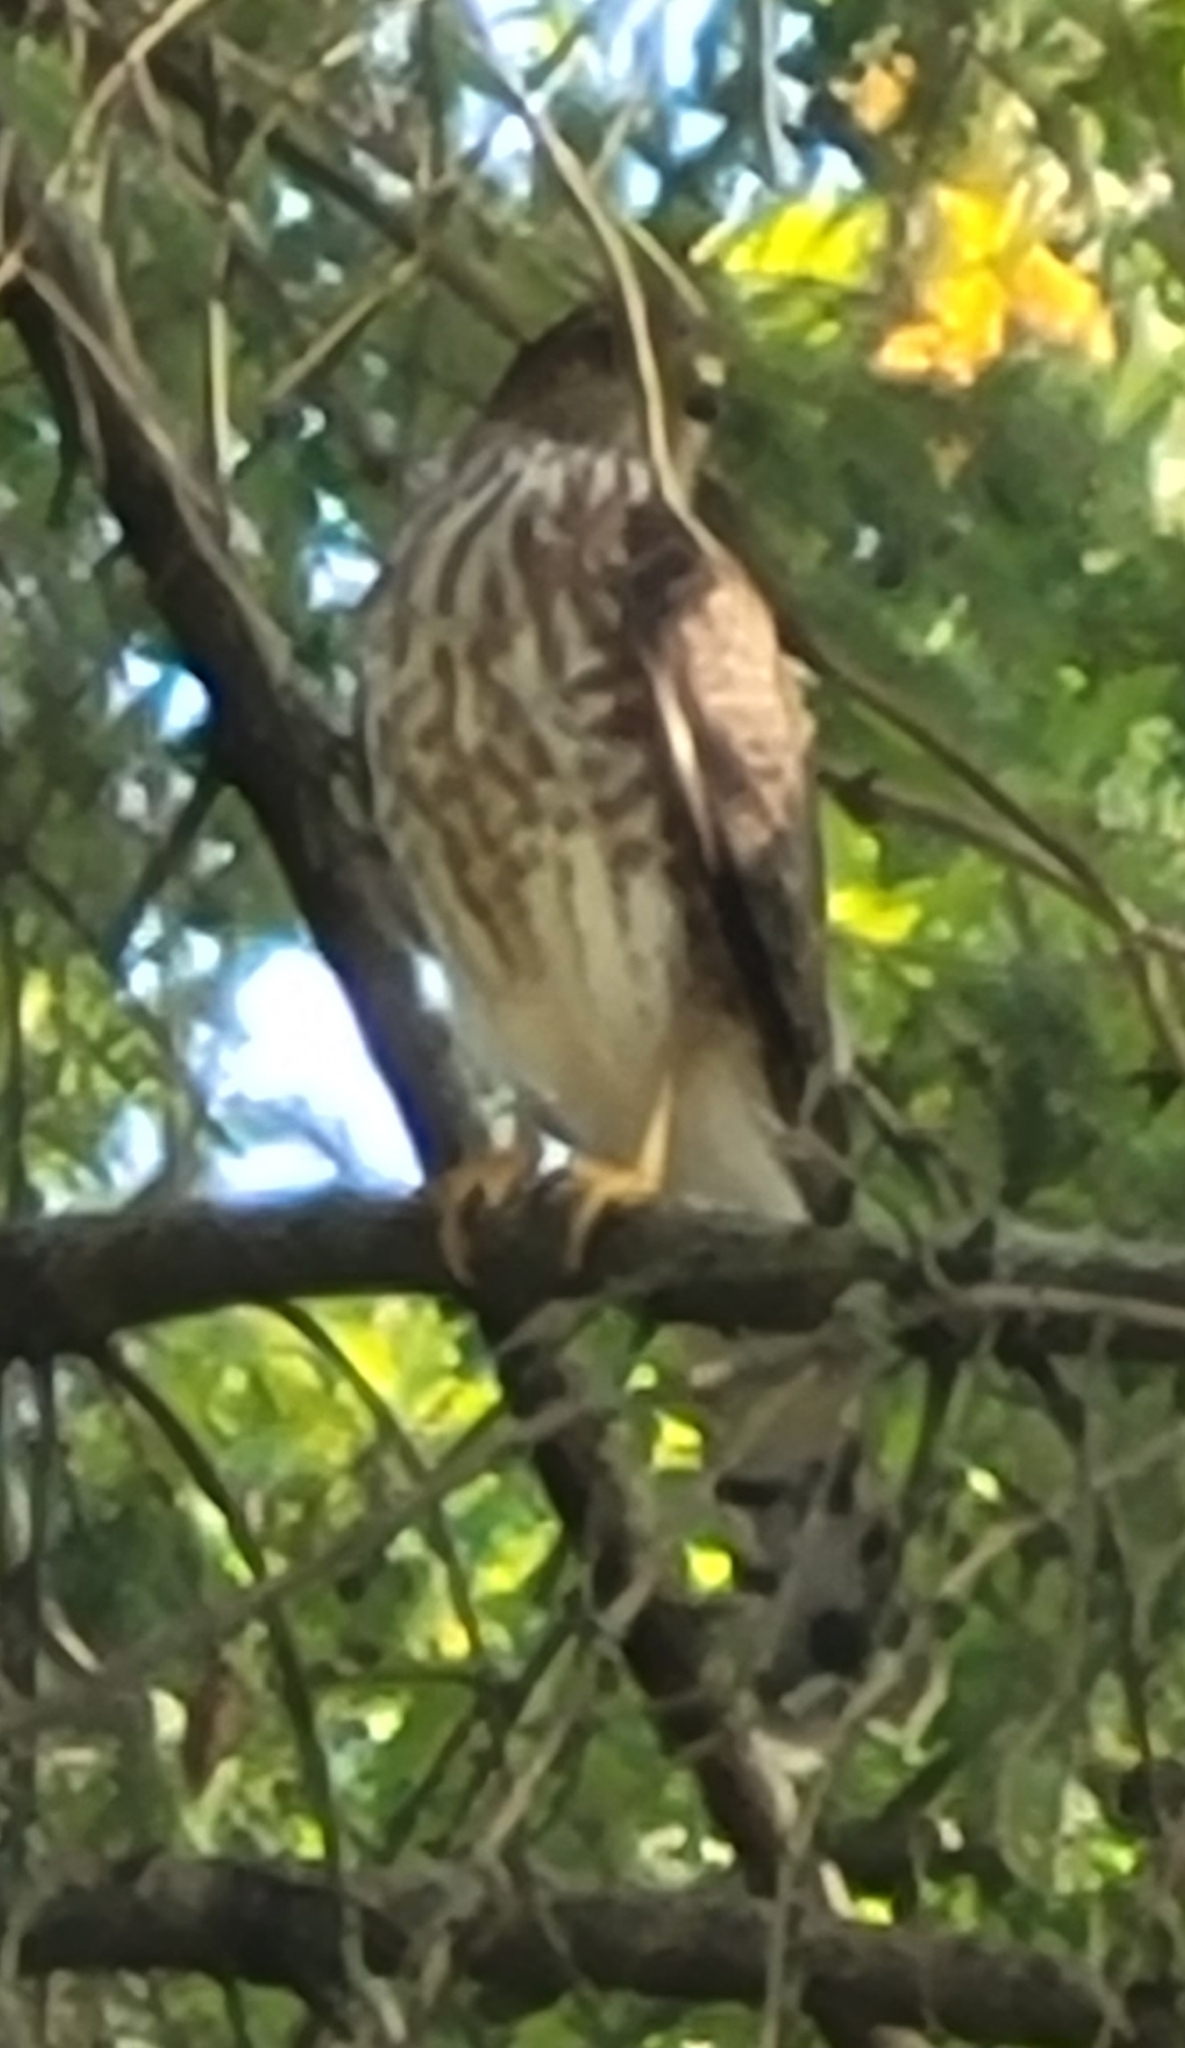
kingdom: Animalia
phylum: Chordata
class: Aves
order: Accipitriformes
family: Accipitridae
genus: Accipiter
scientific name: Accipiter striatus
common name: Sharp-shinned hawk
